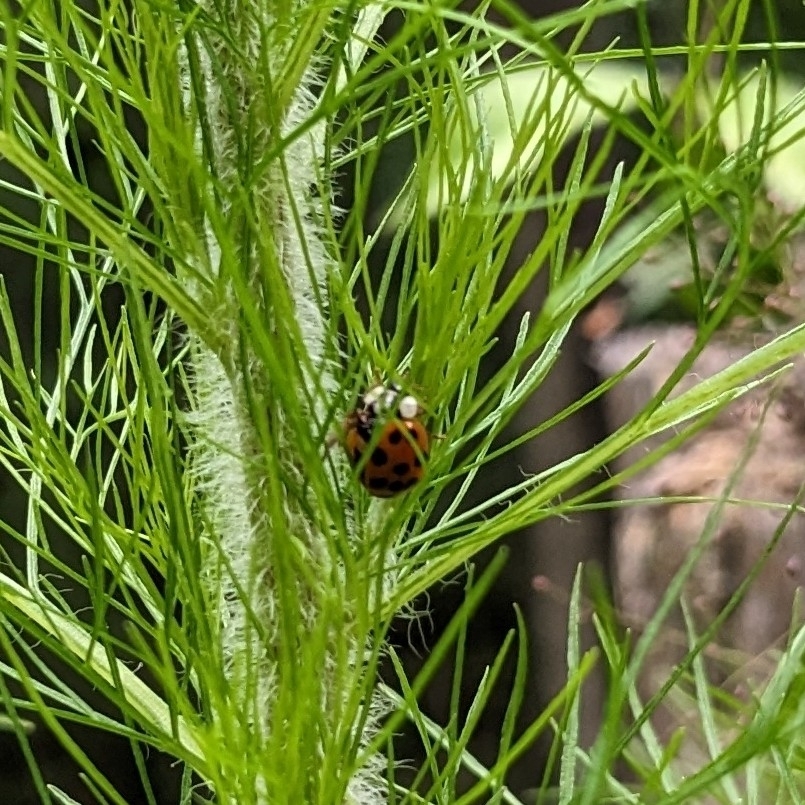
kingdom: Animalia
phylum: Arthropoda
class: Insecta
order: Coleoptera
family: Coccinellidae
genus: Harmonia
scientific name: Harmonia axyridis
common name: Harlequin ladybird
